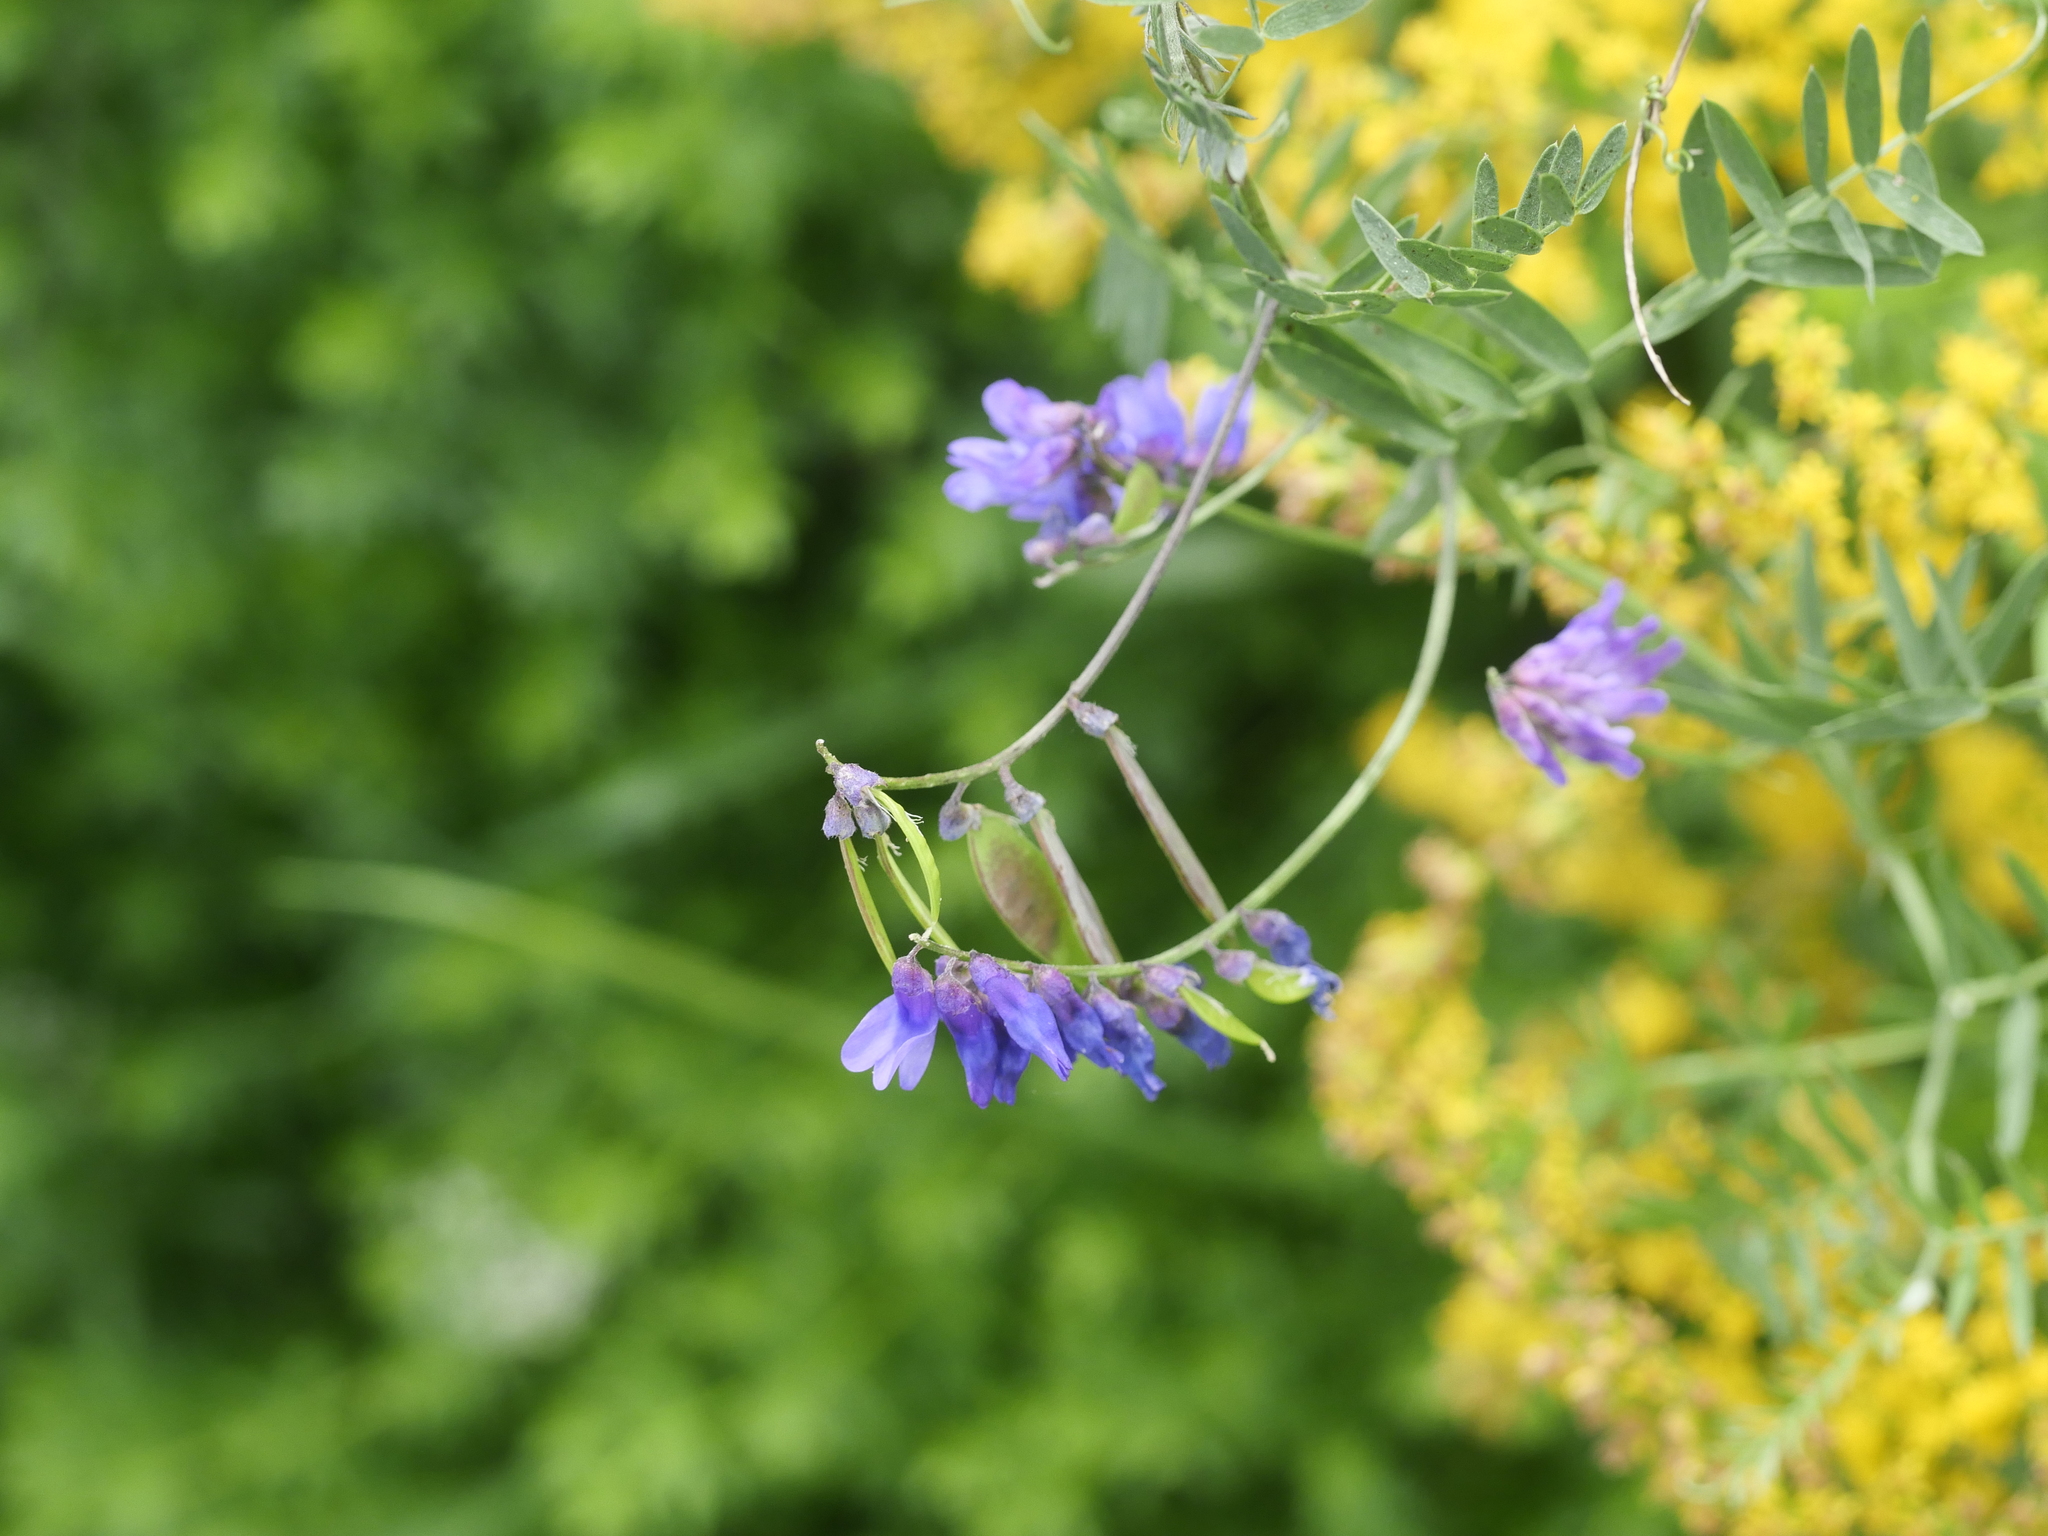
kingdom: Plantae
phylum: Tracheophyta
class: Magnoliopsida
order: Fabales
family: Fabaceae
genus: Vicia
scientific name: Vicia cracca
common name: Bird vetch
